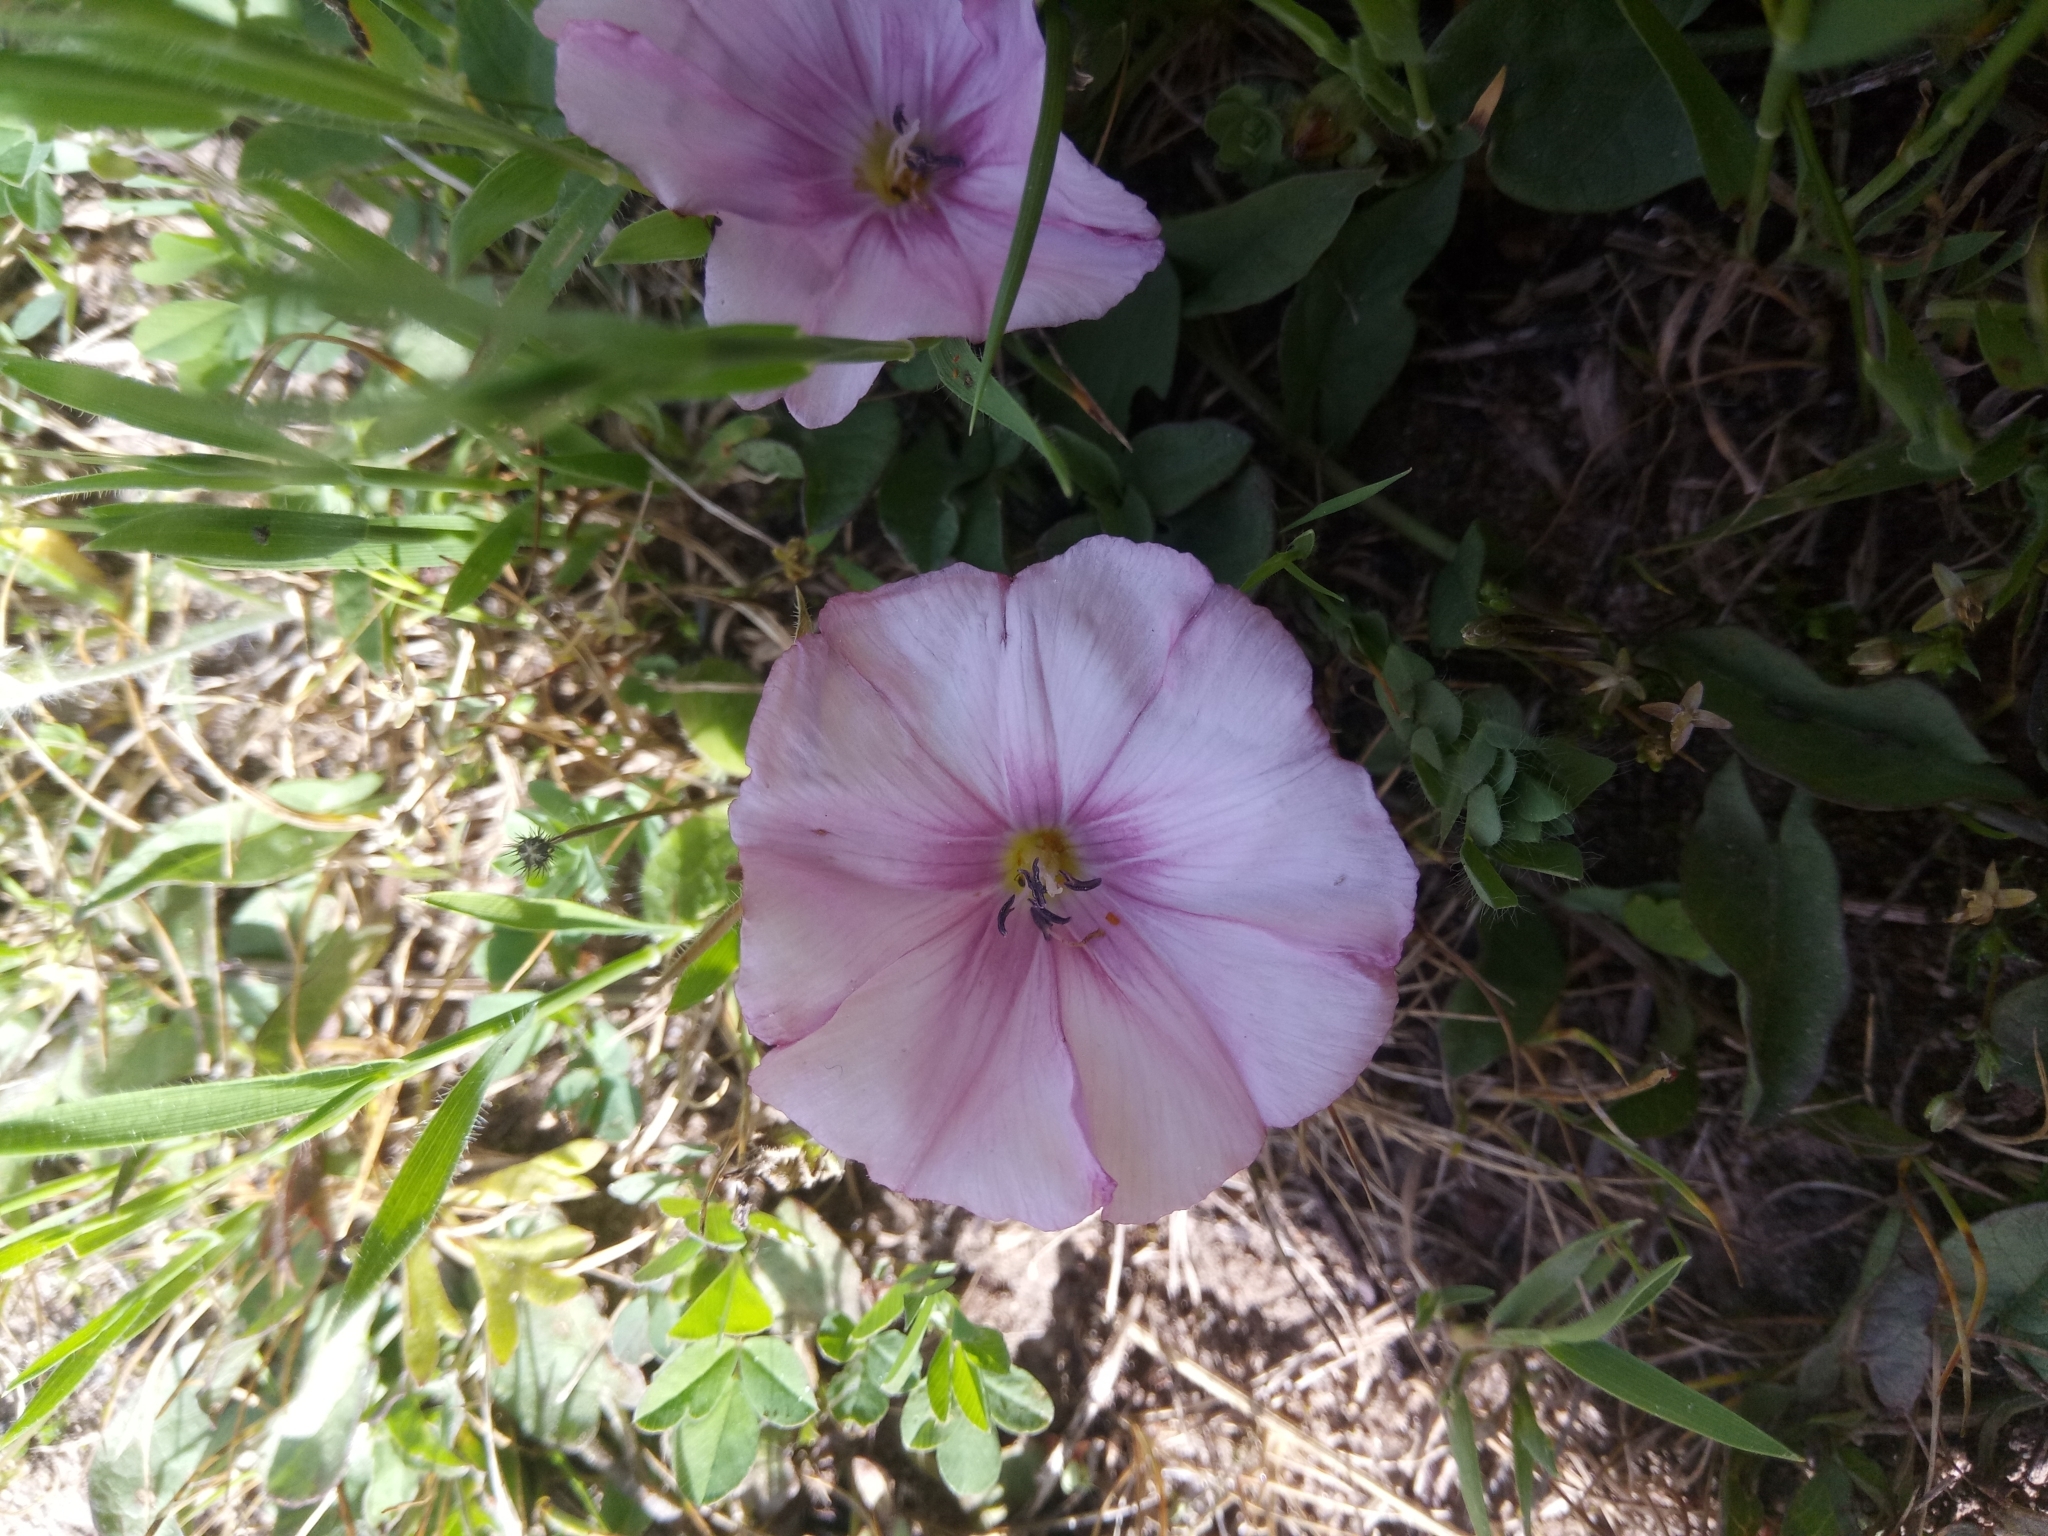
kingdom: Plantae
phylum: Tracheophyta
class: Magnoliopsida
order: Solanales
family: Convolvulaceae
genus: Convolvulus
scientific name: Convolvulus durandoi
